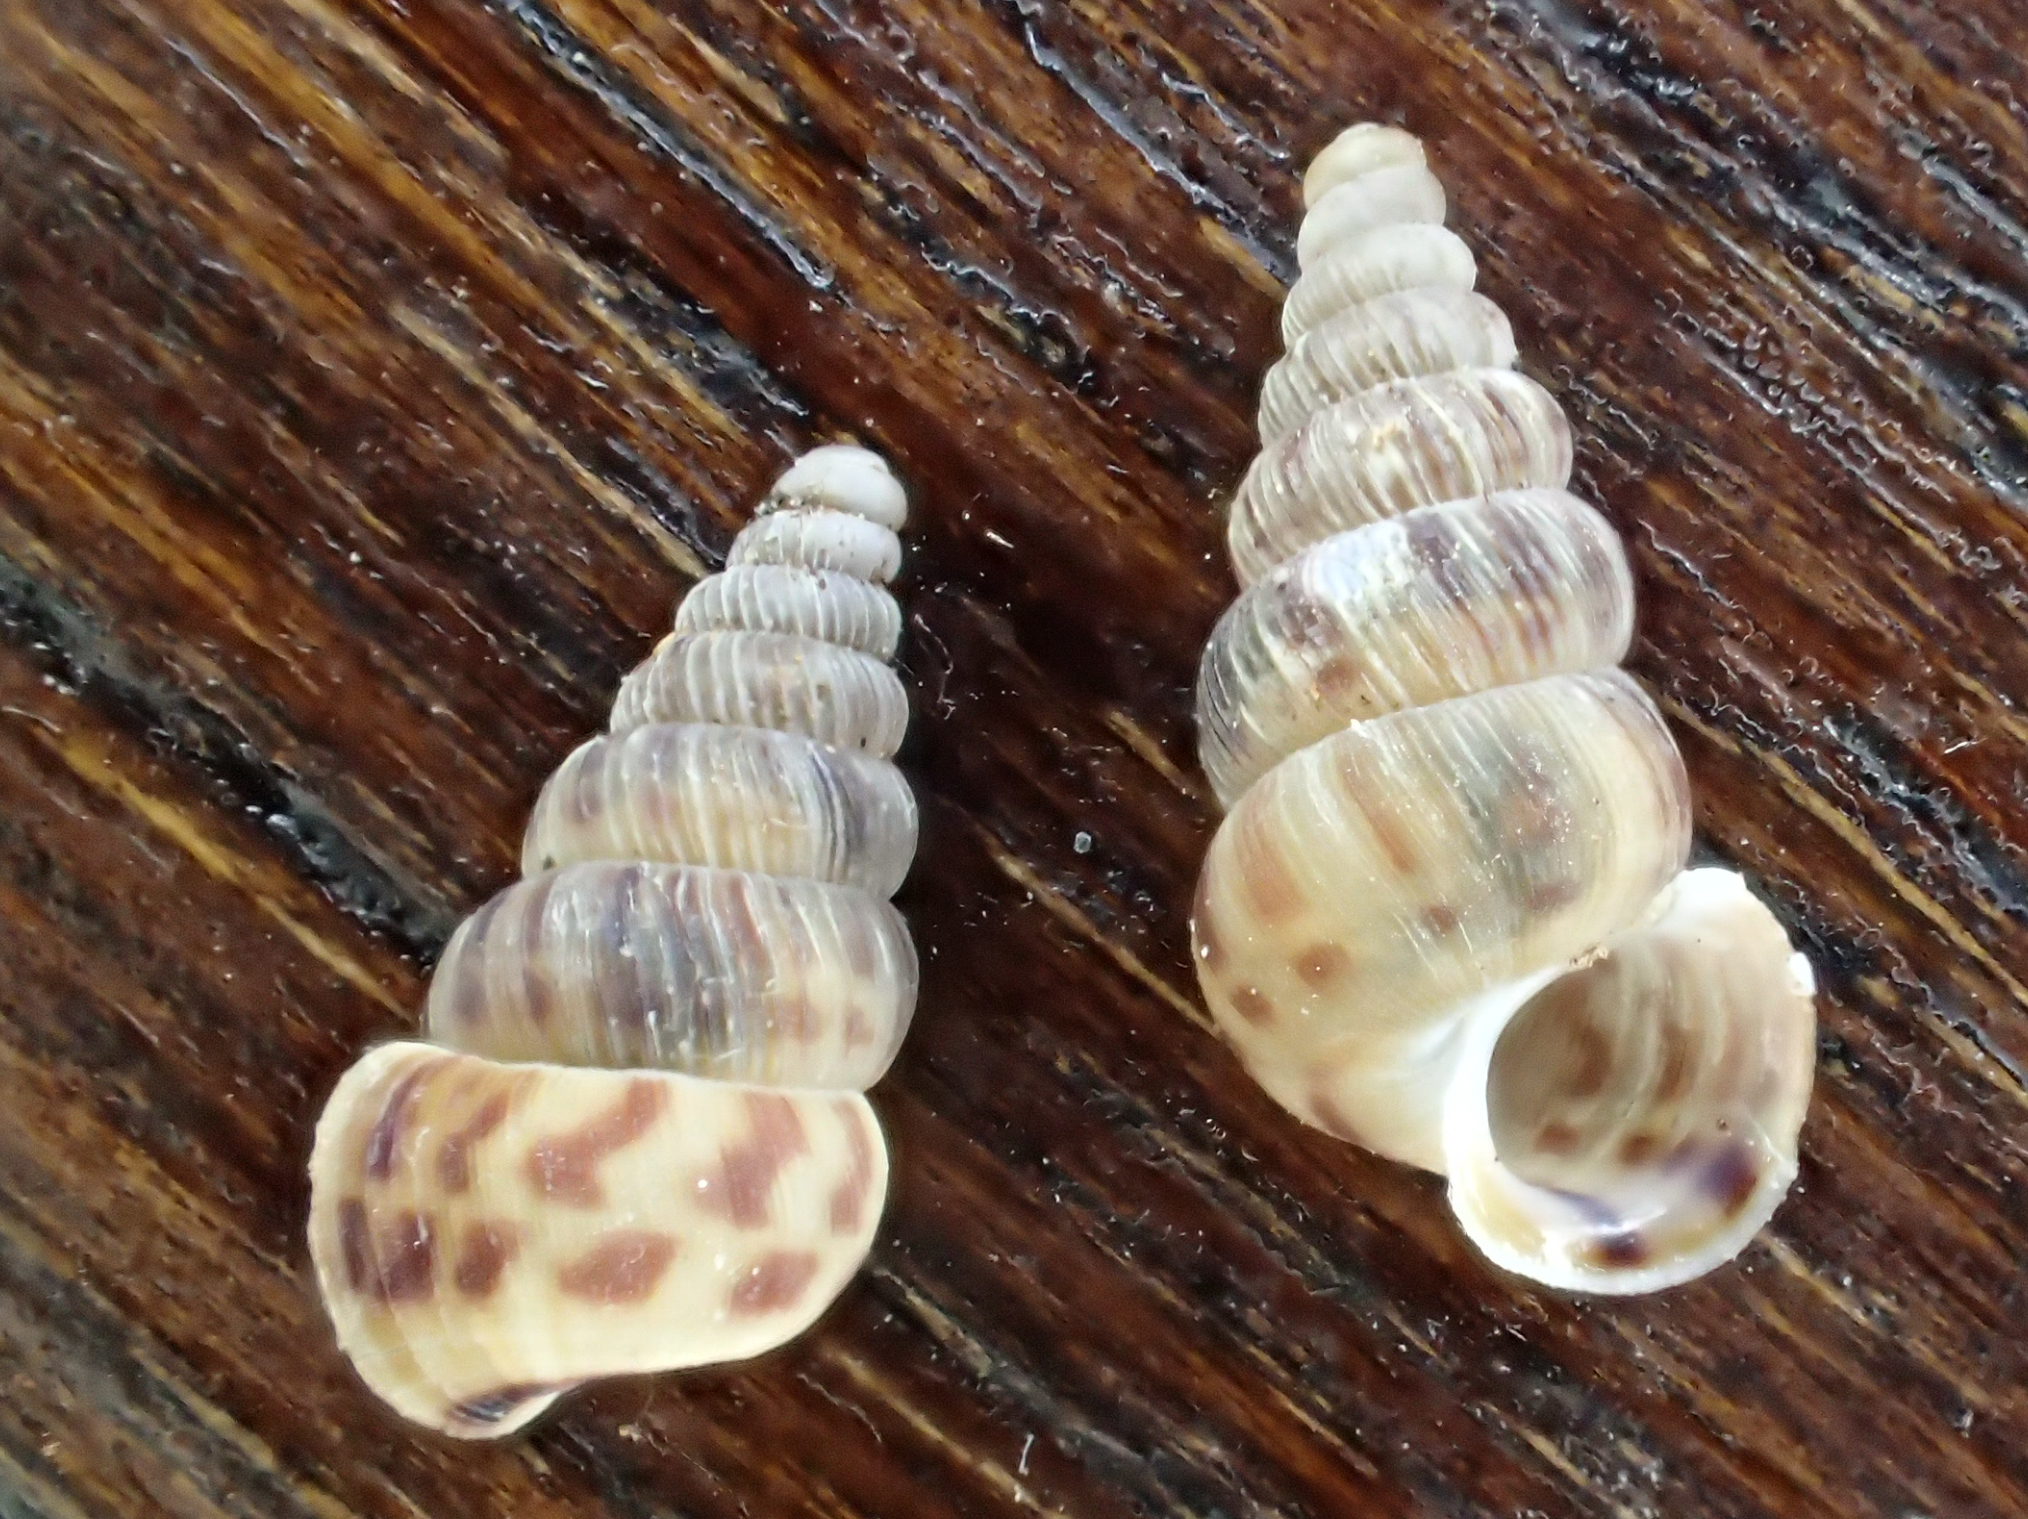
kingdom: Animalia
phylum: Mollusca
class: Gastropoda
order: Architaenioglossa
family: Cochlostomatidae
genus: Cochlostoma
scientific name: Cochlostoma septemspirale
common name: Seven-whorl snail
